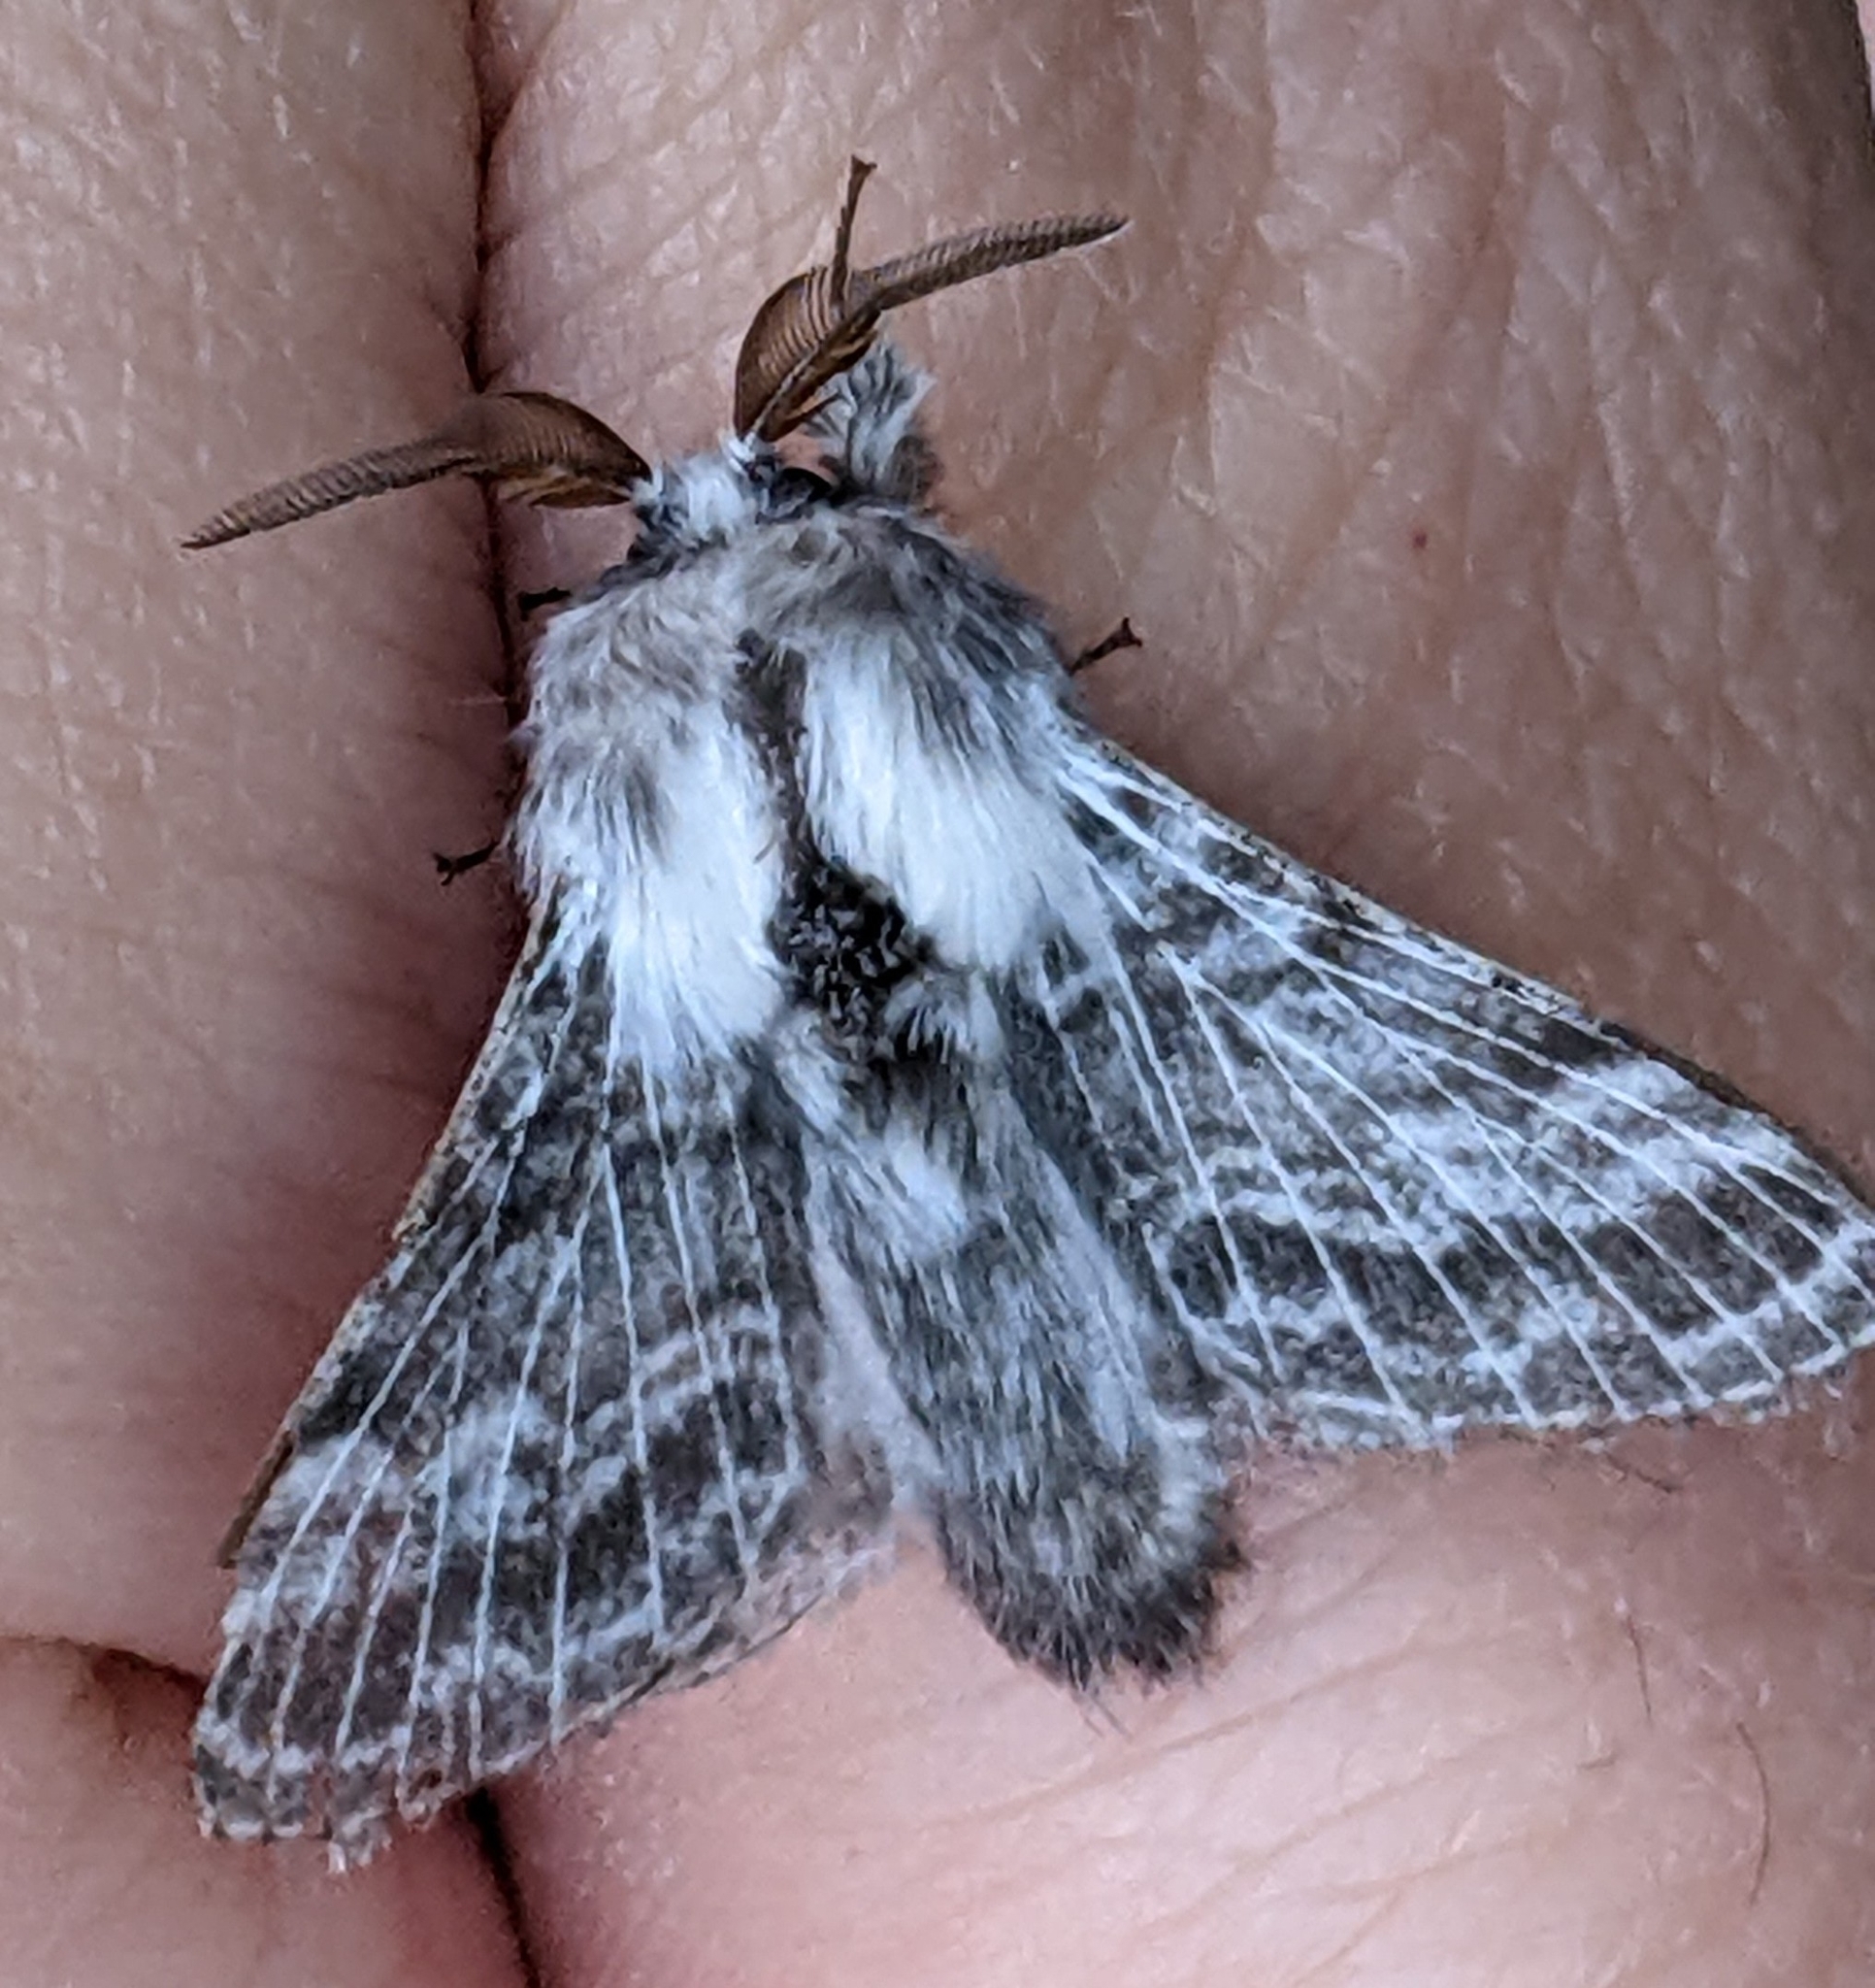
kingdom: Animalia
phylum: Arthropoda
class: Insecta
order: Lepidoptera
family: Lasiocampidae
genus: Tolype
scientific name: Tolype dayi
